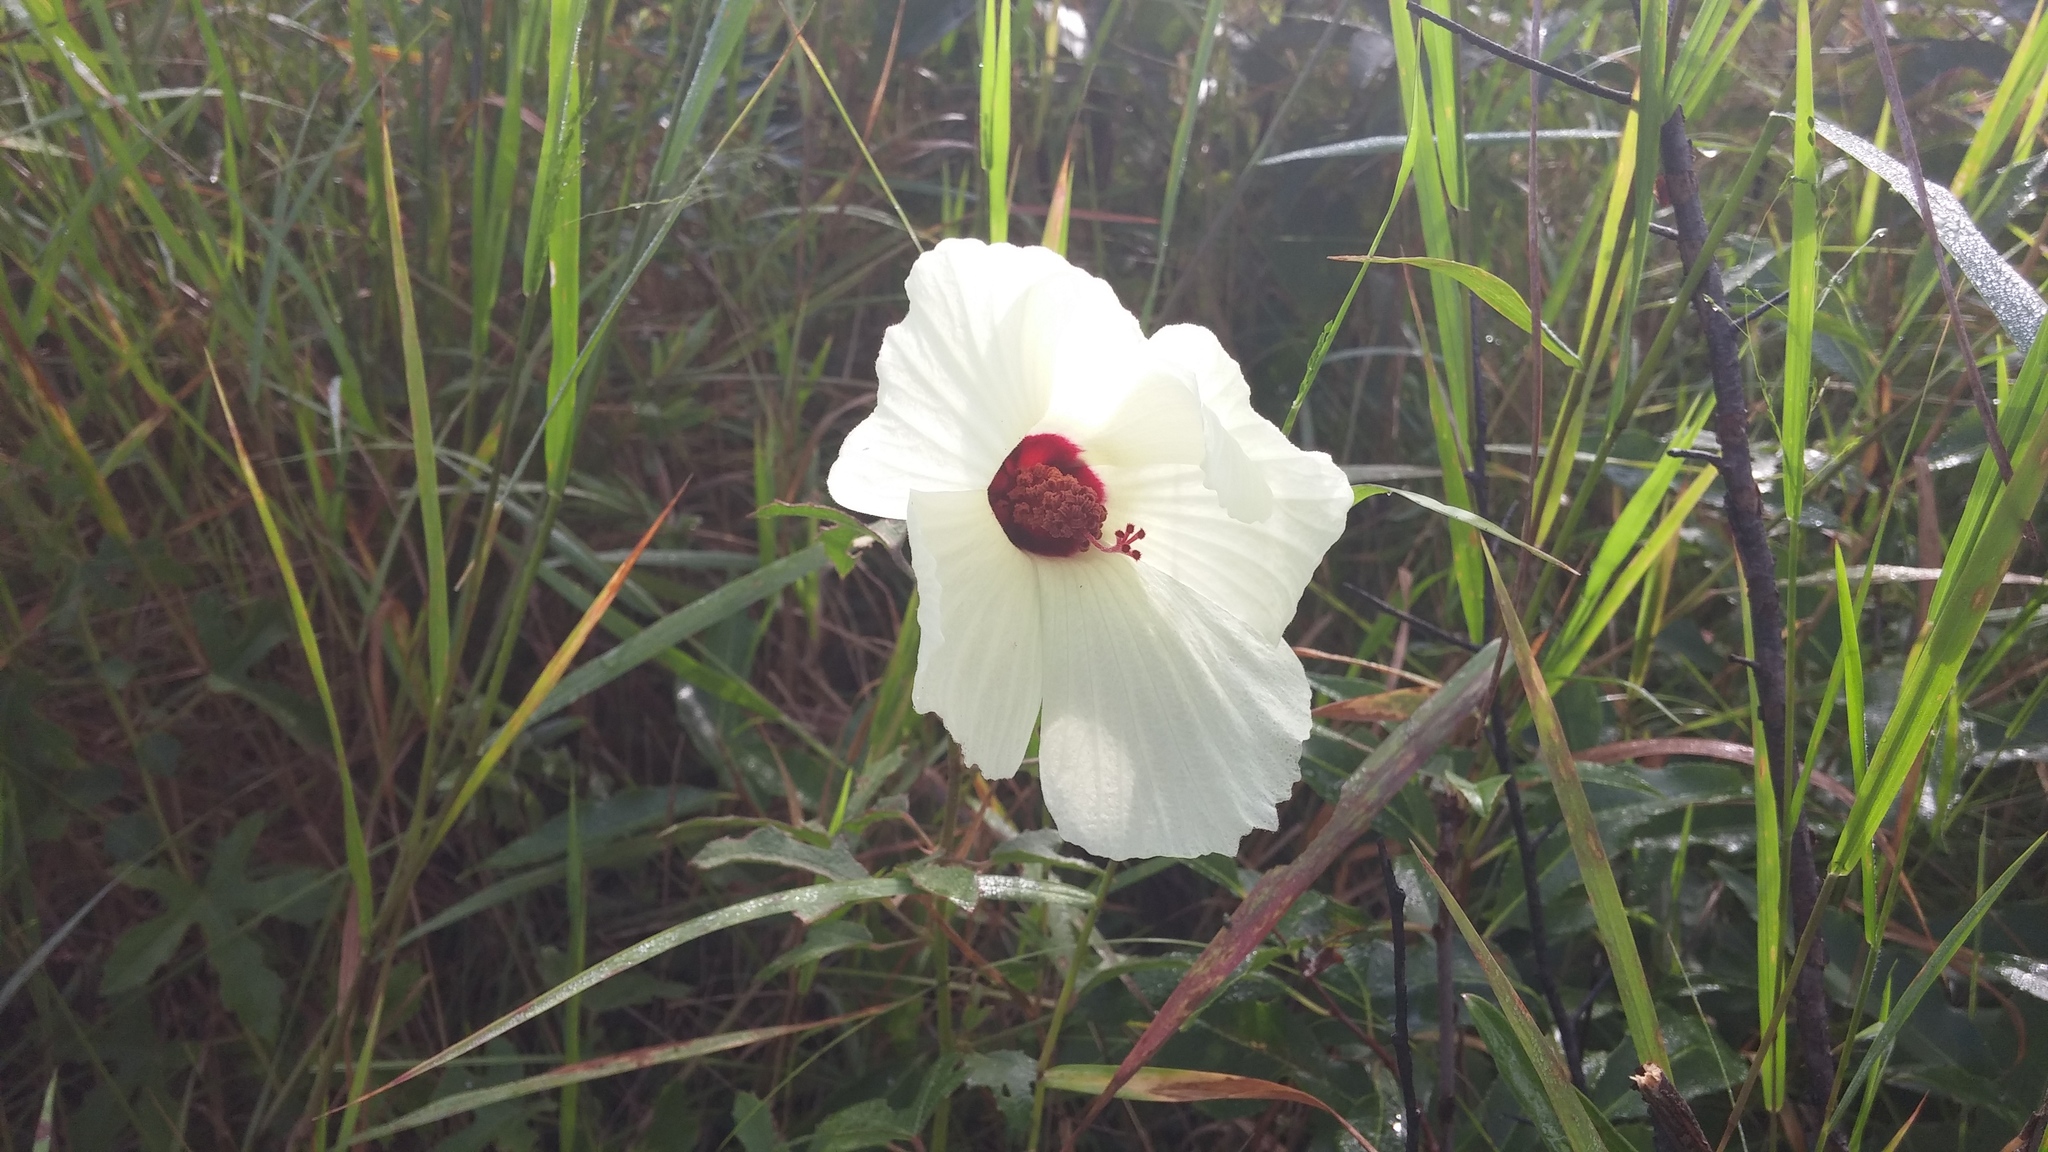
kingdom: Plantae
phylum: Tracheophyta
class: Magnoliopsida
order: Malvales
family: Malvaceae
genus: Hibiscus
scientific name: Hibiscus aculeatus
